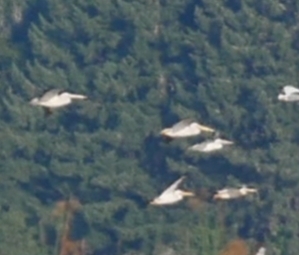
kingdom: Animalia
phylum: Chordata
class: Aves
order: Pelecaniformes
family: Pelecanidae
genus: Pelecanus
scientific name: Pelecanus erythrorhynchos
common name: American white pelican
